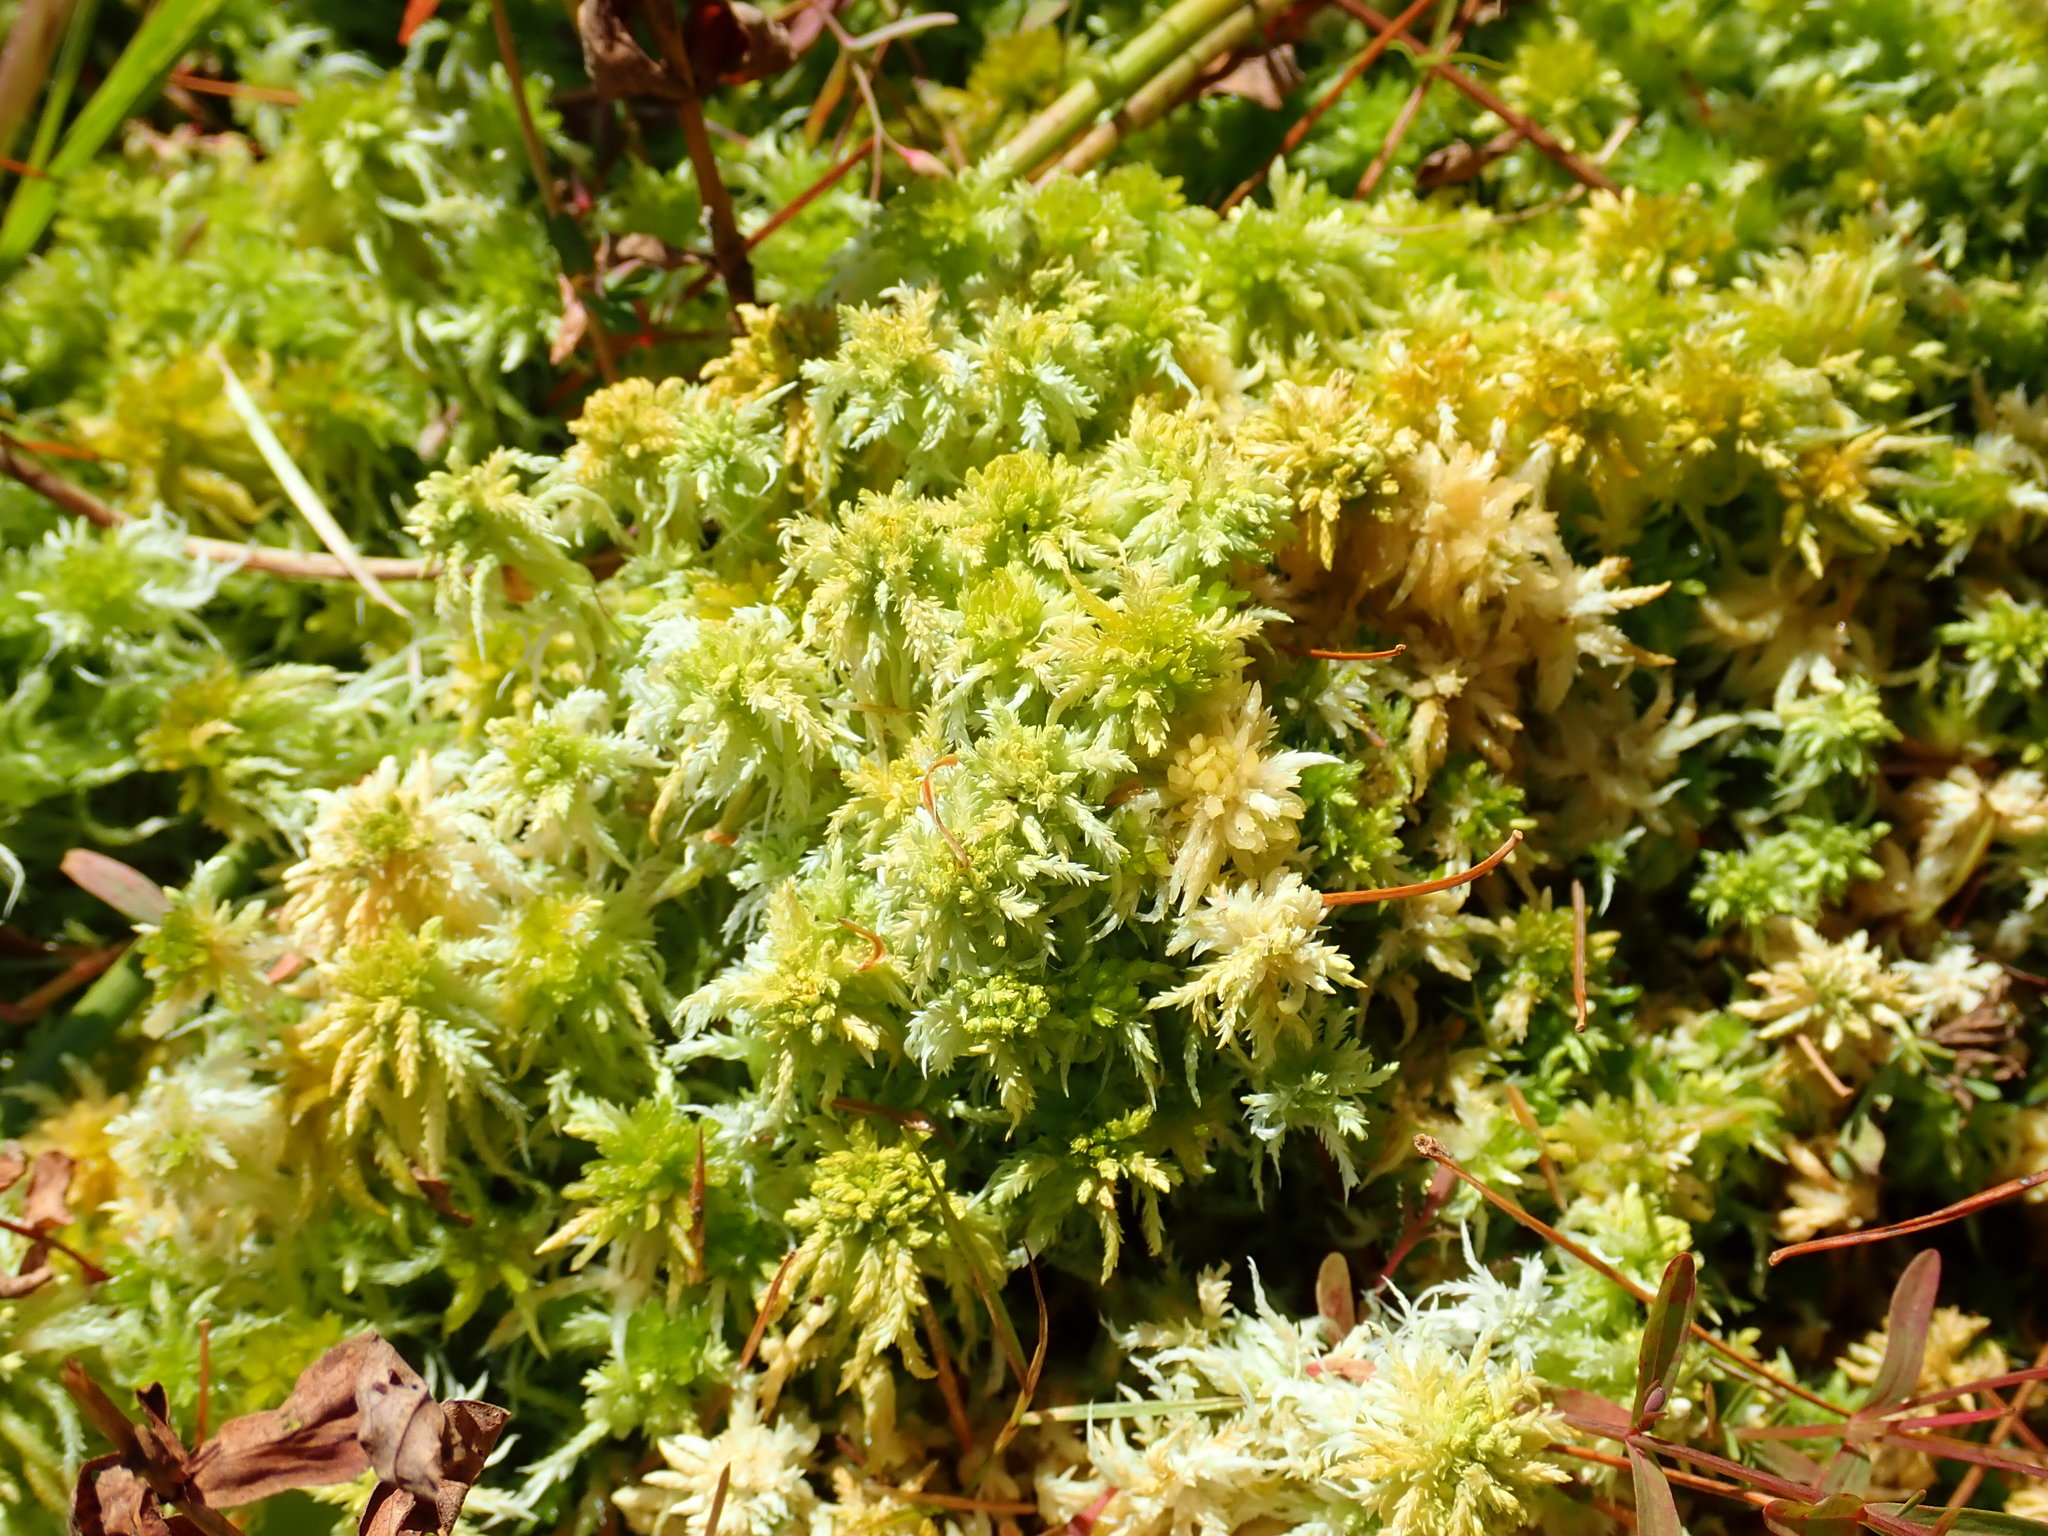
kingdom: Plantae
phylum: Bryophyta
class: Sphagnopsida
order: Sphagnales
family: Sphagnaceae
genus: Sphagnum
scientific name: Sphagnum
